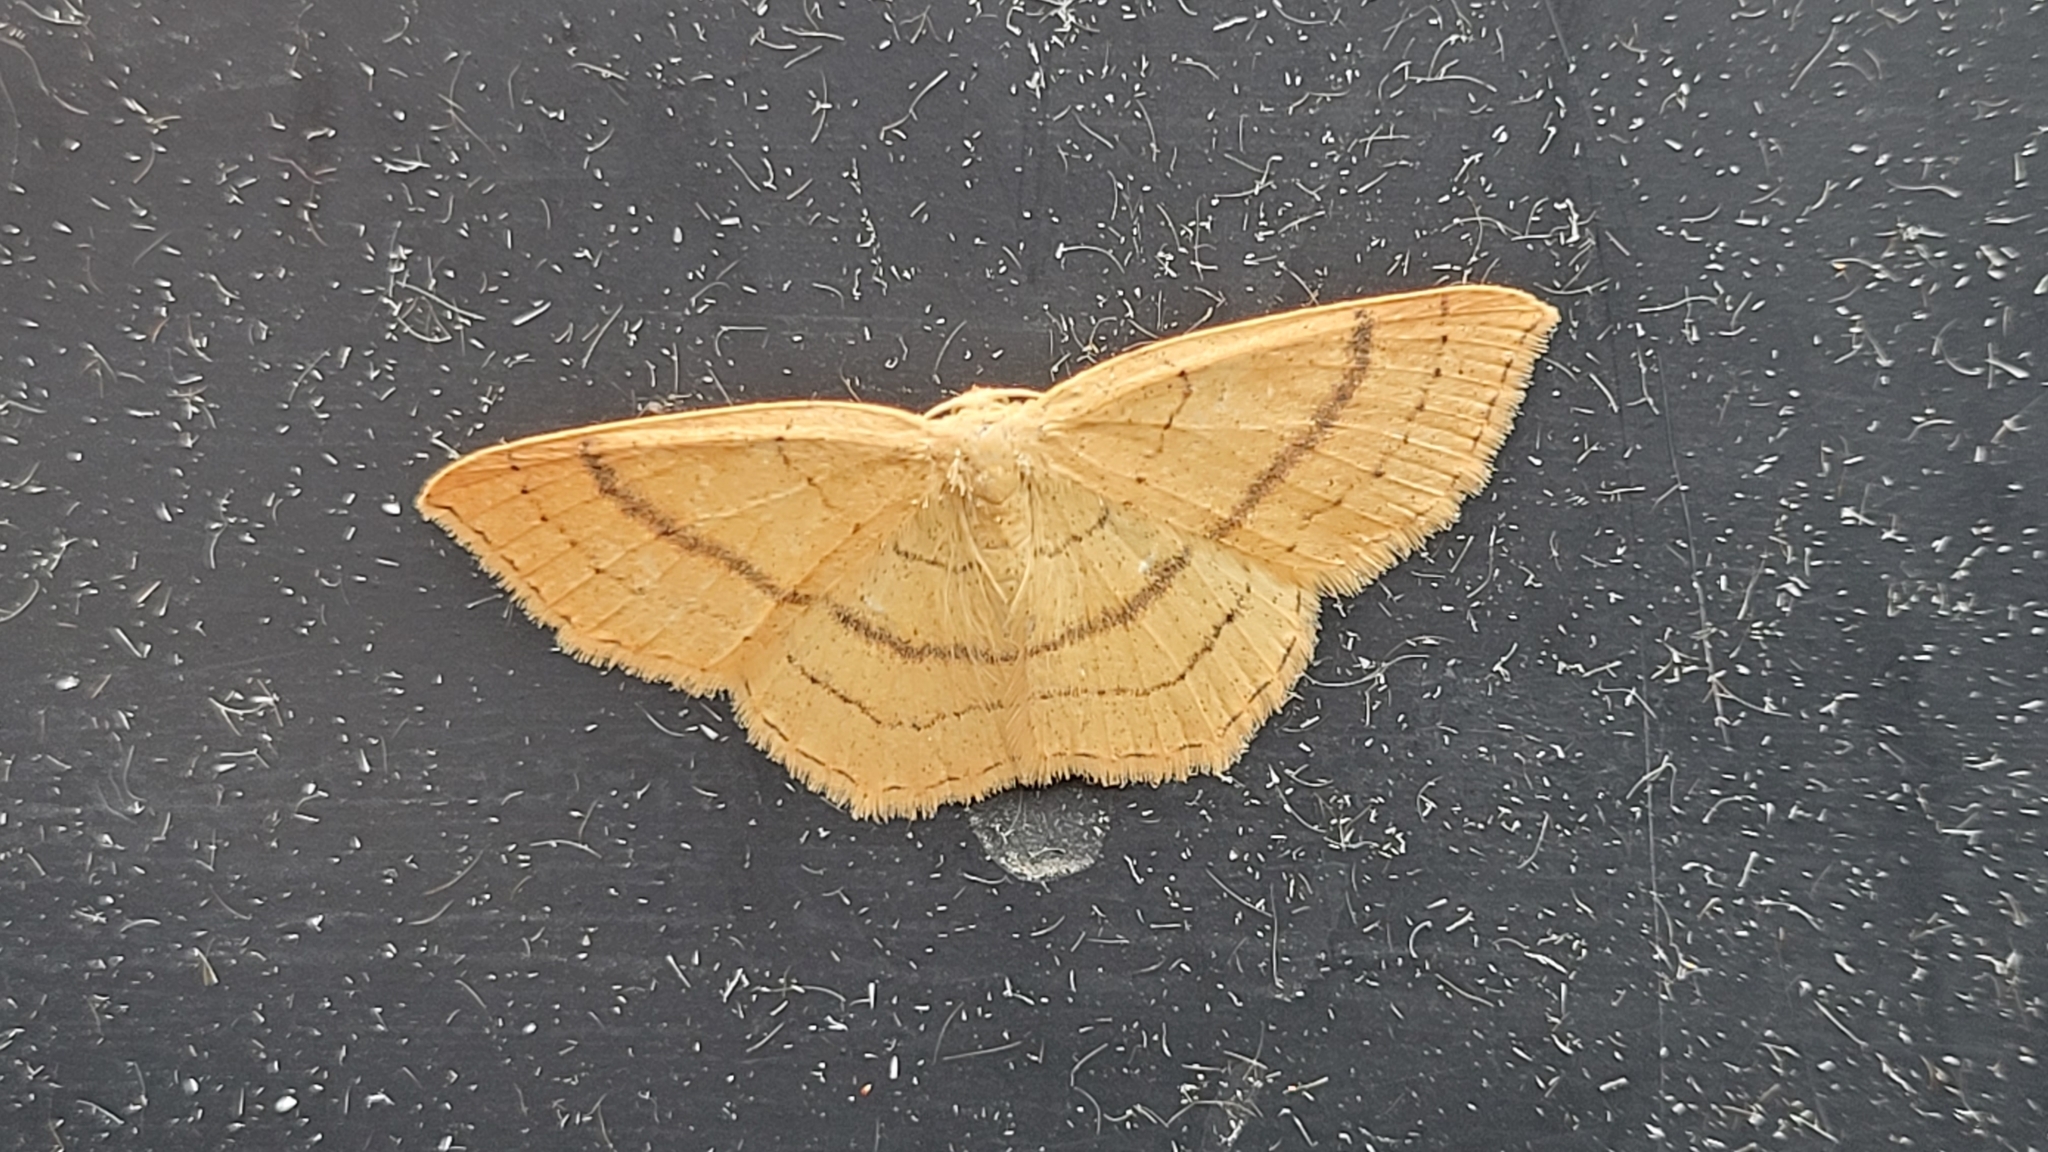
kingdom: Animalia
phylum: Arthropoda
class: Insecta
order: Lepidoptera
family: Geometridae
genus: Cyclophora
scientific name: Cyclophora linearia
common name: Clay triple-lines
